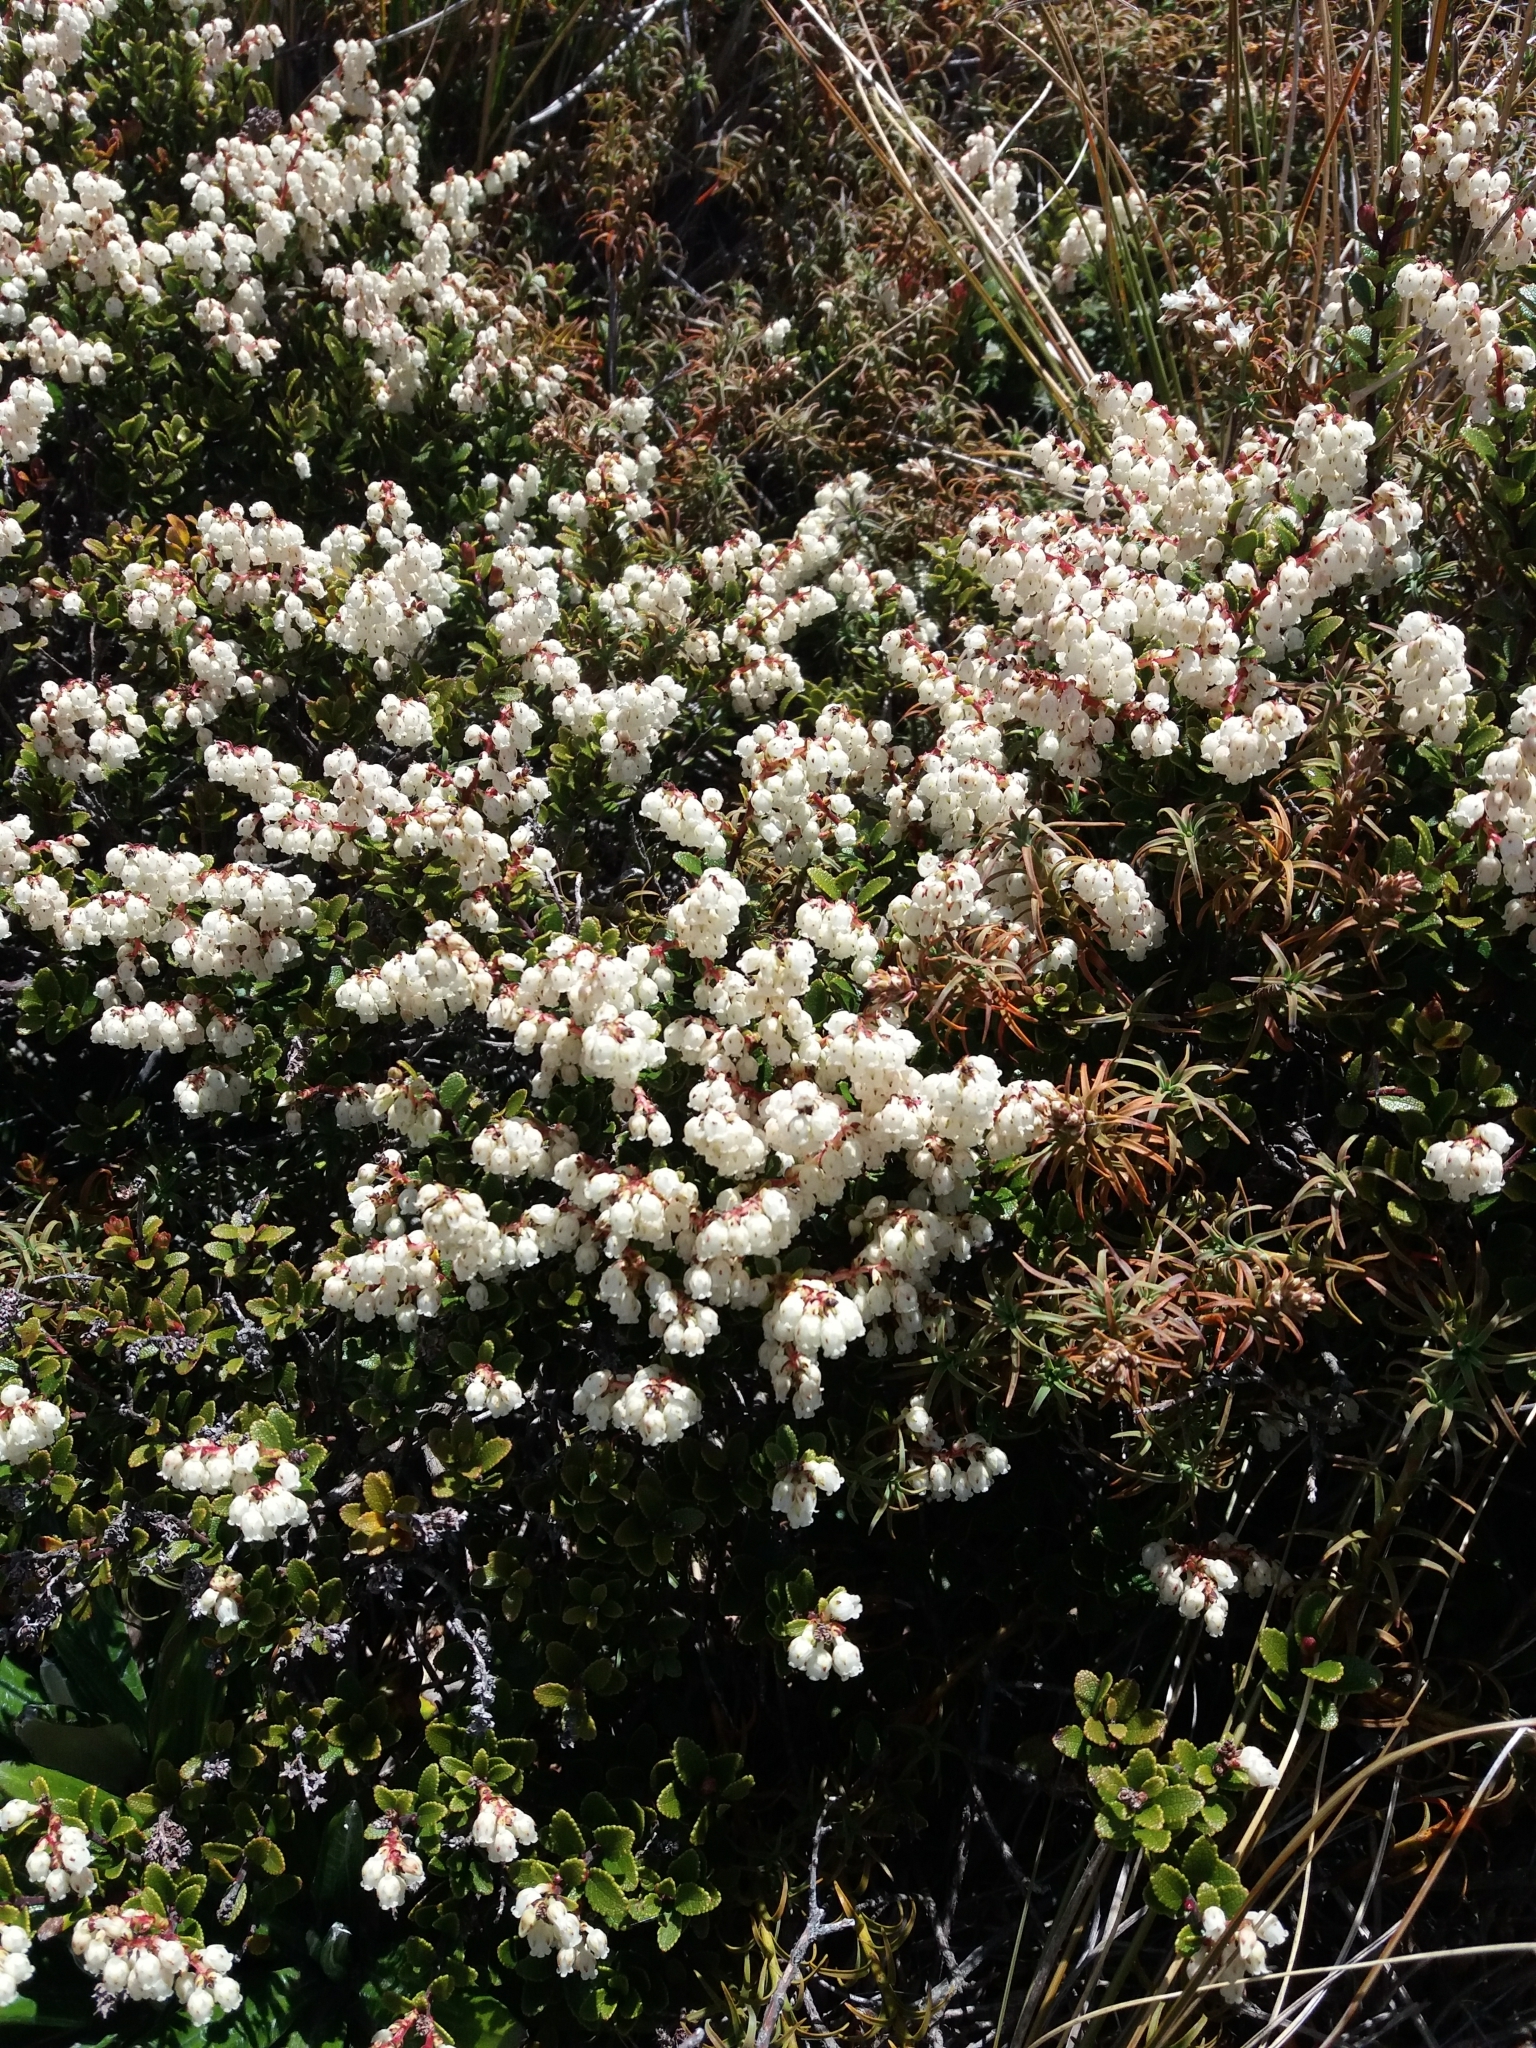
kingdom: Plantae
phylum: Tracheophyta
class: Magnoliopsida
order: Ericales
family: Ericaceae
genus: Gaultheria
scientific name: Gaultheria colensoi
